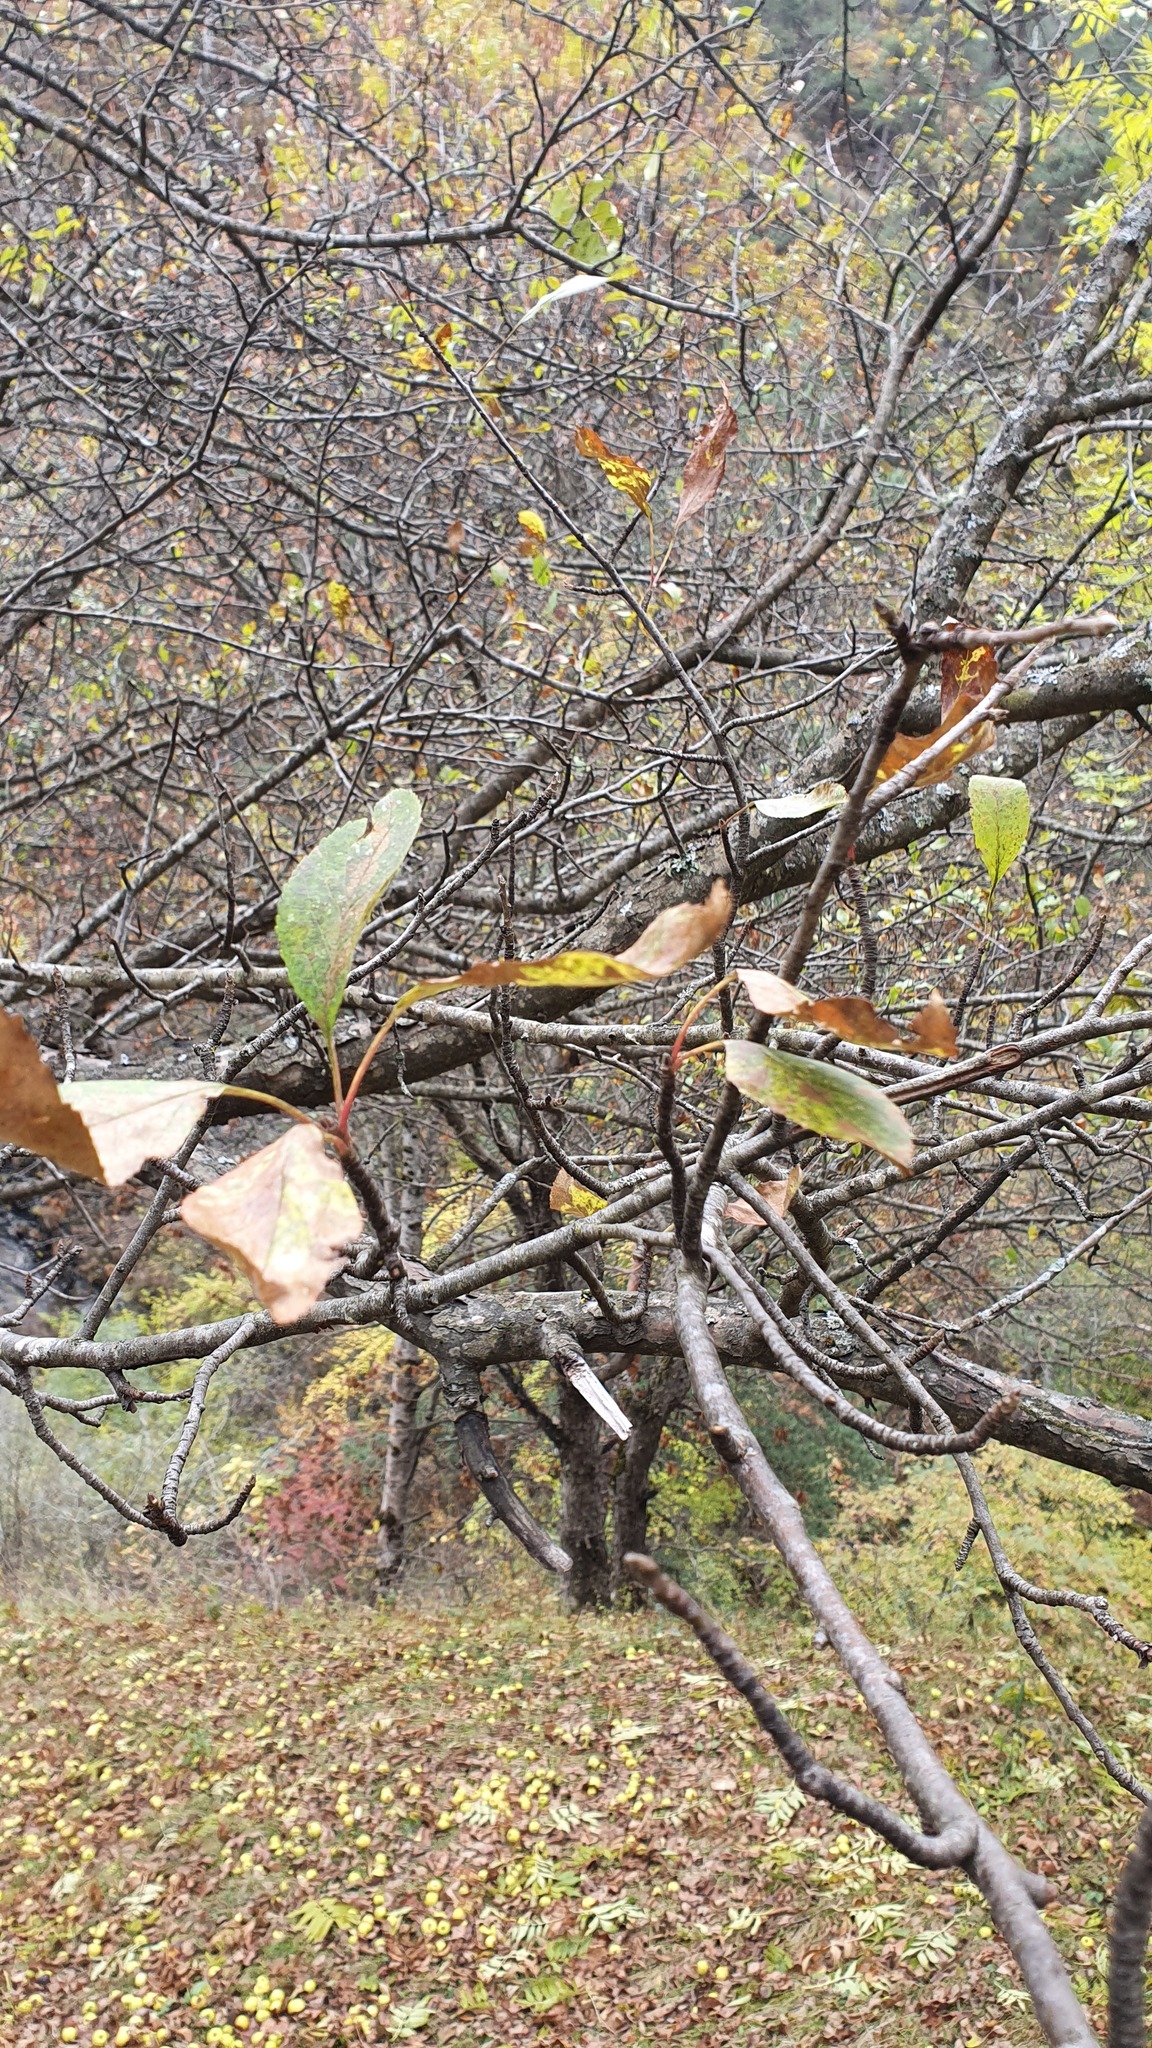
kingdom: Plantae
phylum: Tracheophyta
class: Magnoliopsida
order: Rosales
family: Rosaceae
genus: Malus
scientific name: Malus orientalis
